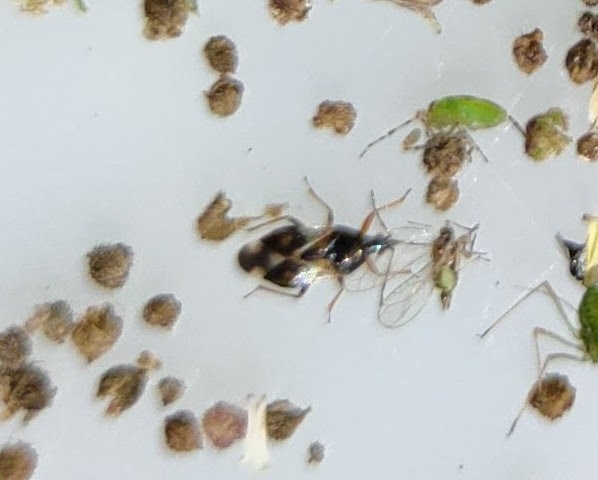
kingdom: Animalia
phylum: Arthropoda
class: Insecta
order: Hemiptera
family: Anthocoridae
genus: Anthocoris
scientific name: Anthocoris nemorum
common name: Minute pirate bug
